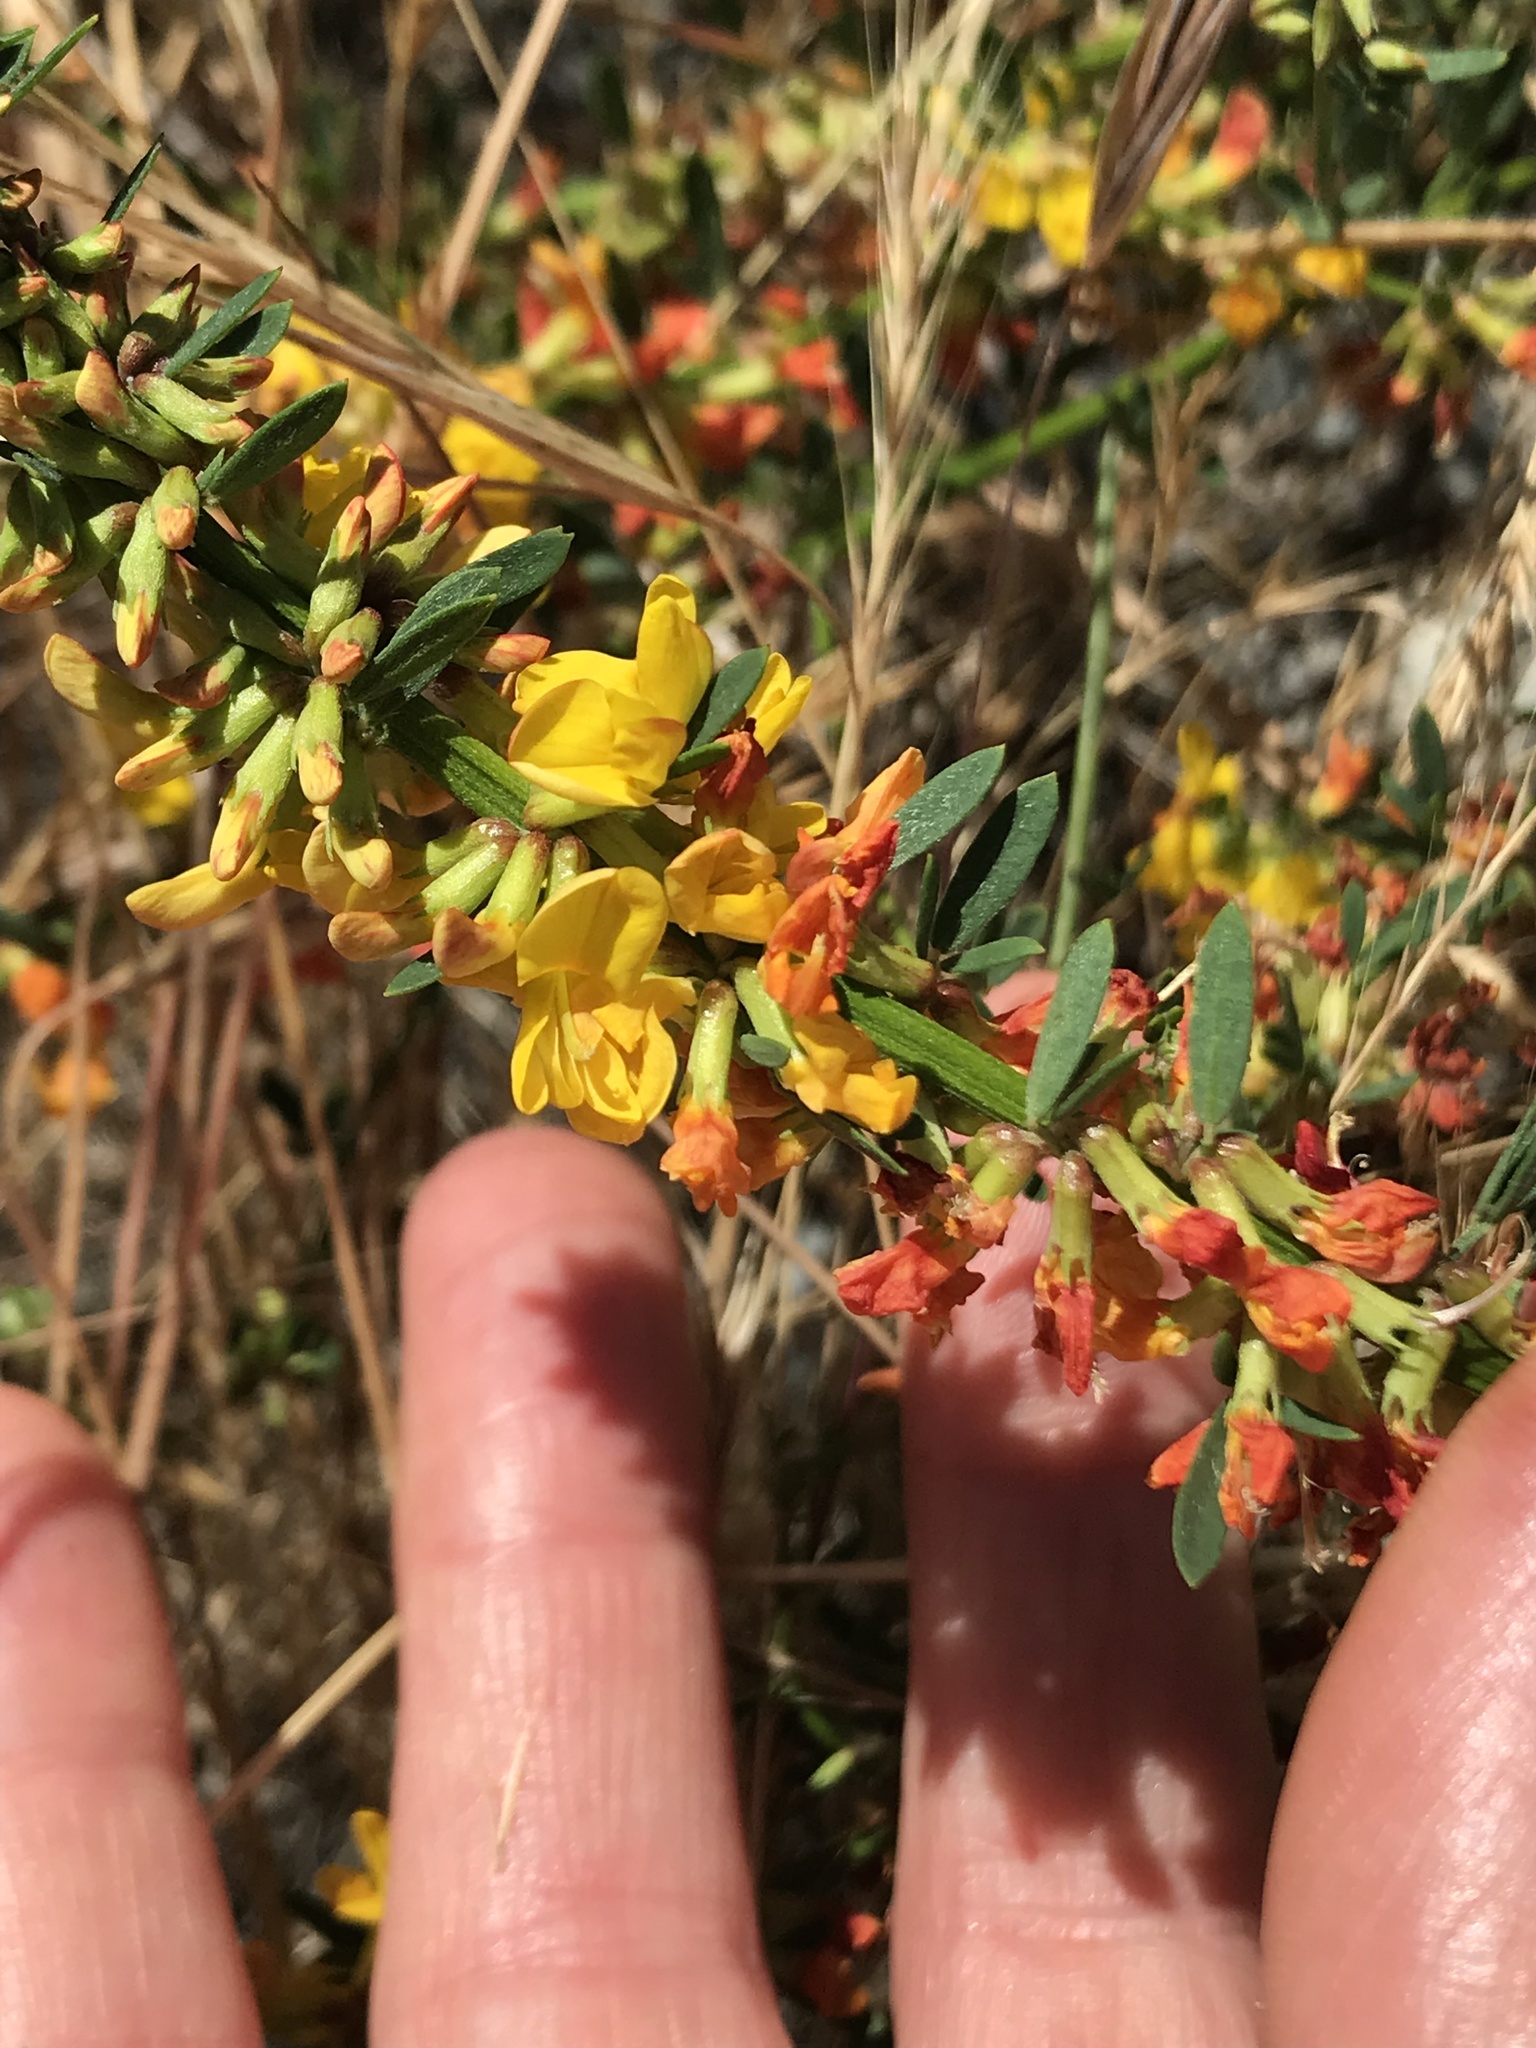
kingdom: Plantae
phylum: Tracheophyta
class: Magnoliopsida
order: Fabales
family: Fabaceae
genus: Acmispon
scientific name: Acmispon glaber
